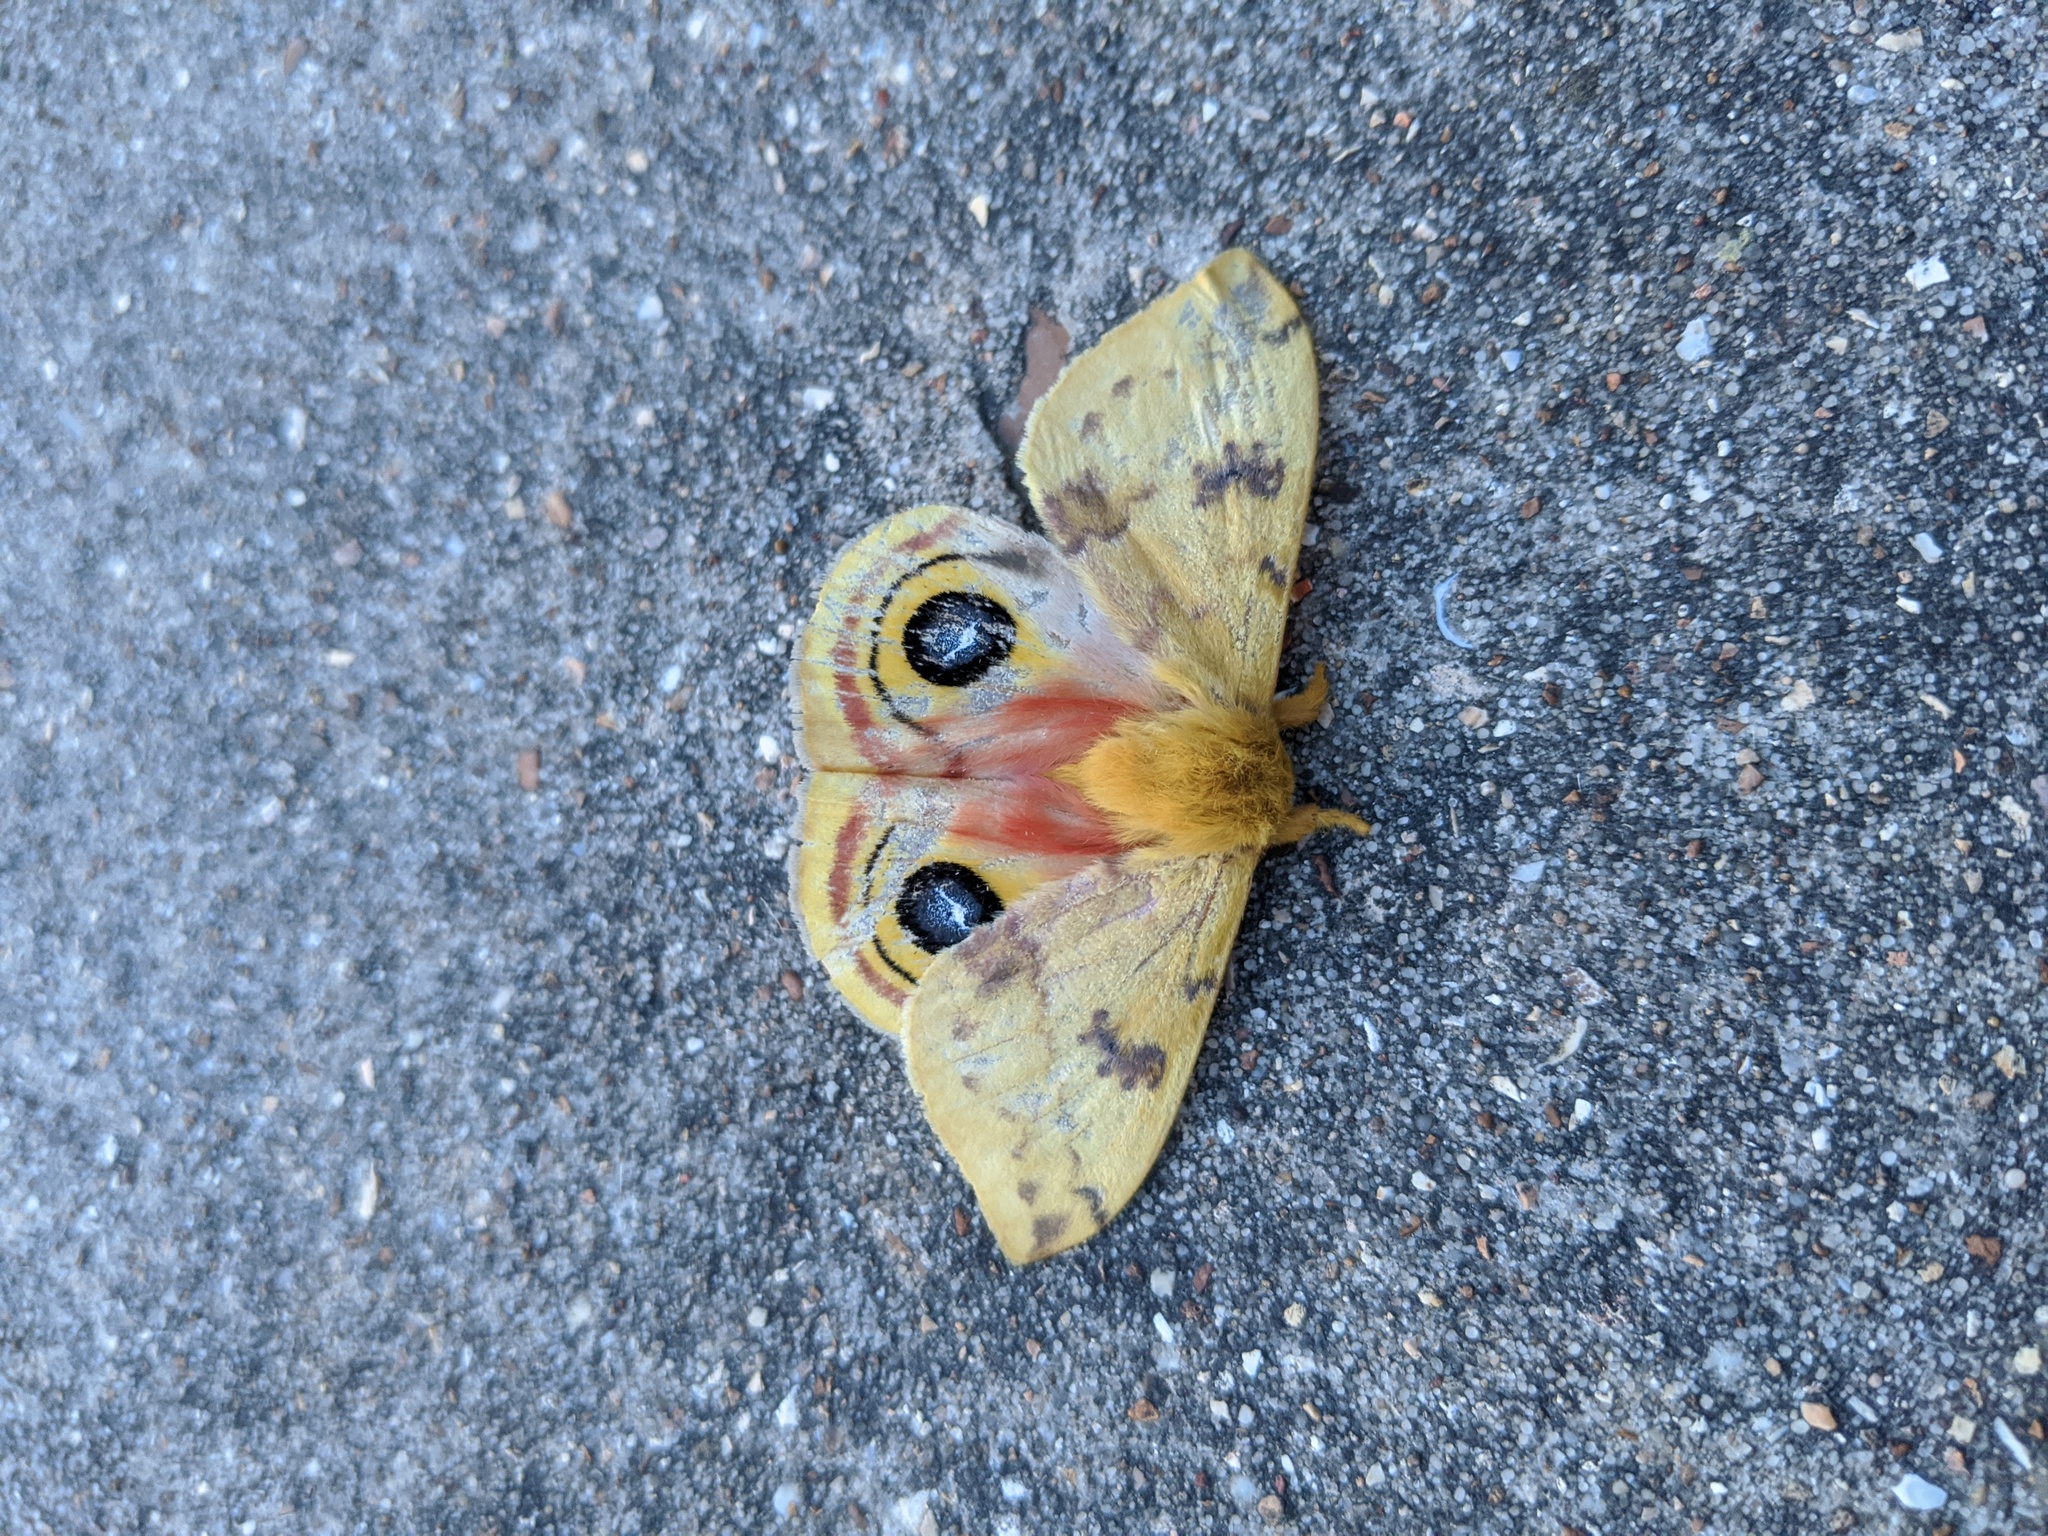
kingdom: Animalia
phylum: Arthropoda
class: Insecta
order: Lepidoptera
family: Saturniidae
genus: Automeris
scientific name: Automeris io
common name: Io moth
